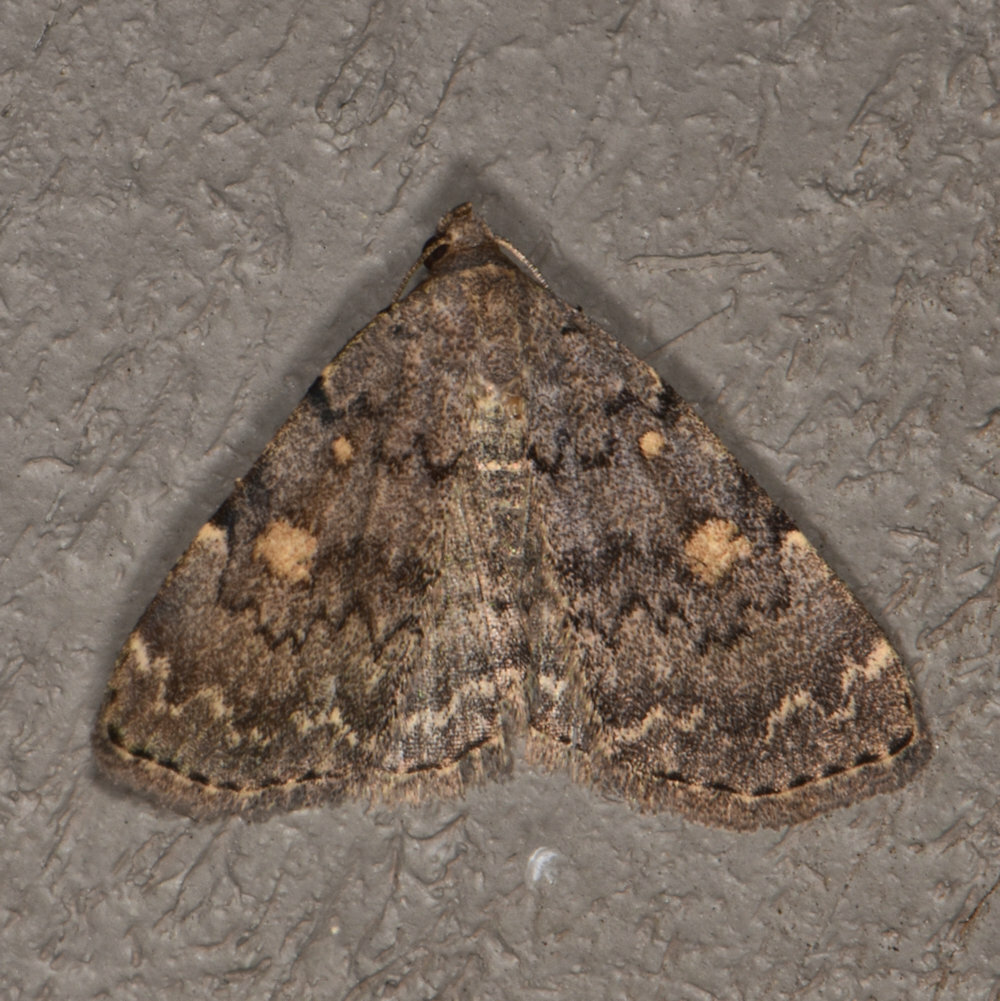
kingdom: Animalia
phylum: Arthropoda
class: Insecta
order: Lepidoptera
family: Erebidae
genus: Idia
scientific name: Idia aemula
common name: Common idia moth
